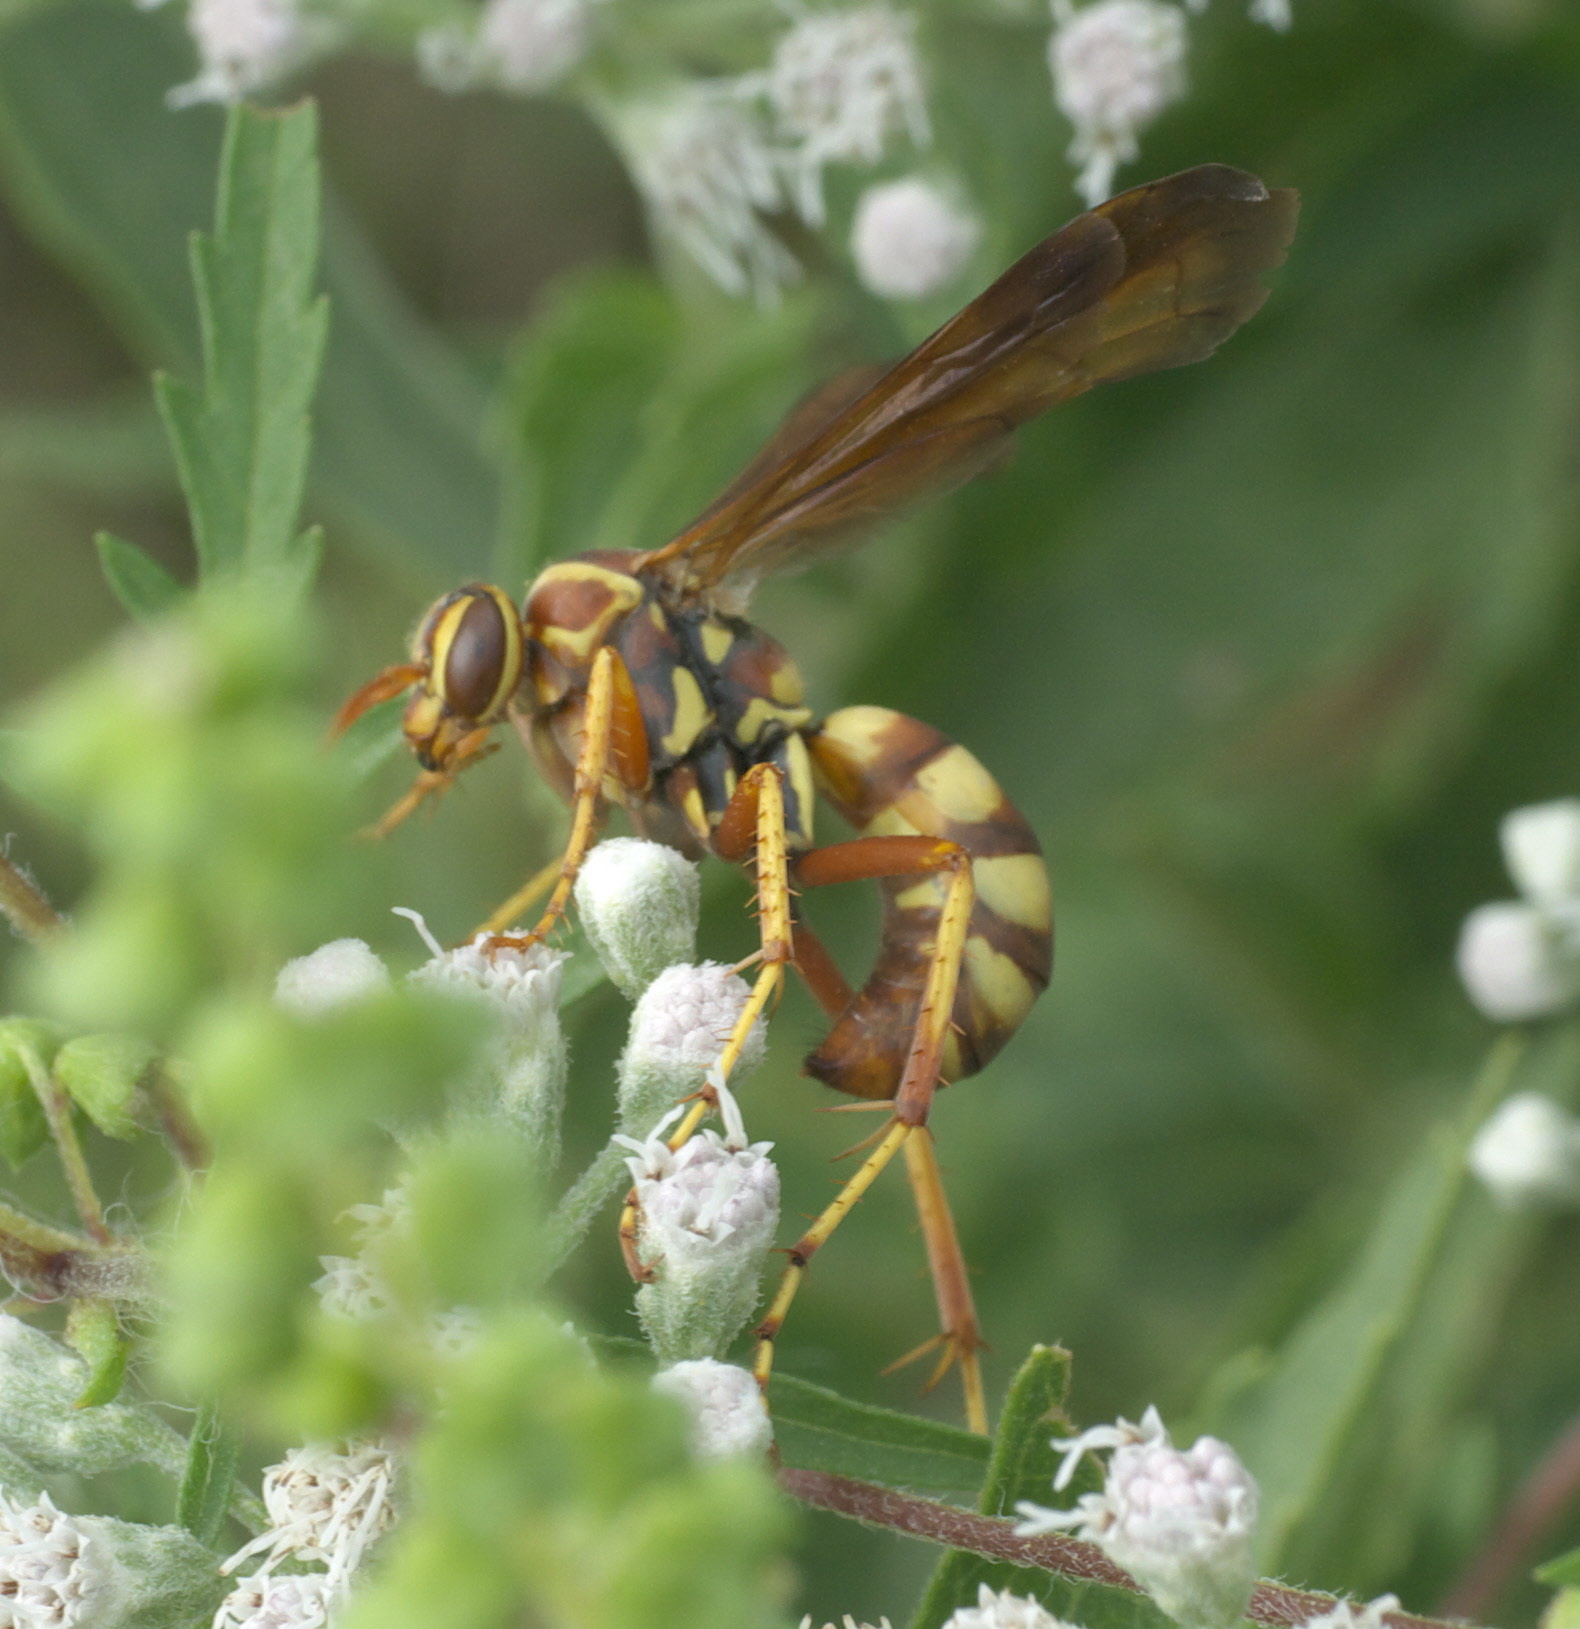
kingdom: Animalia
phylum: Arthropoda
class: Insecta
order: Hymenoptera
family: Pompilidae
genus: Poecilopompilus
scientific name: Poecilopompilus interruptus
